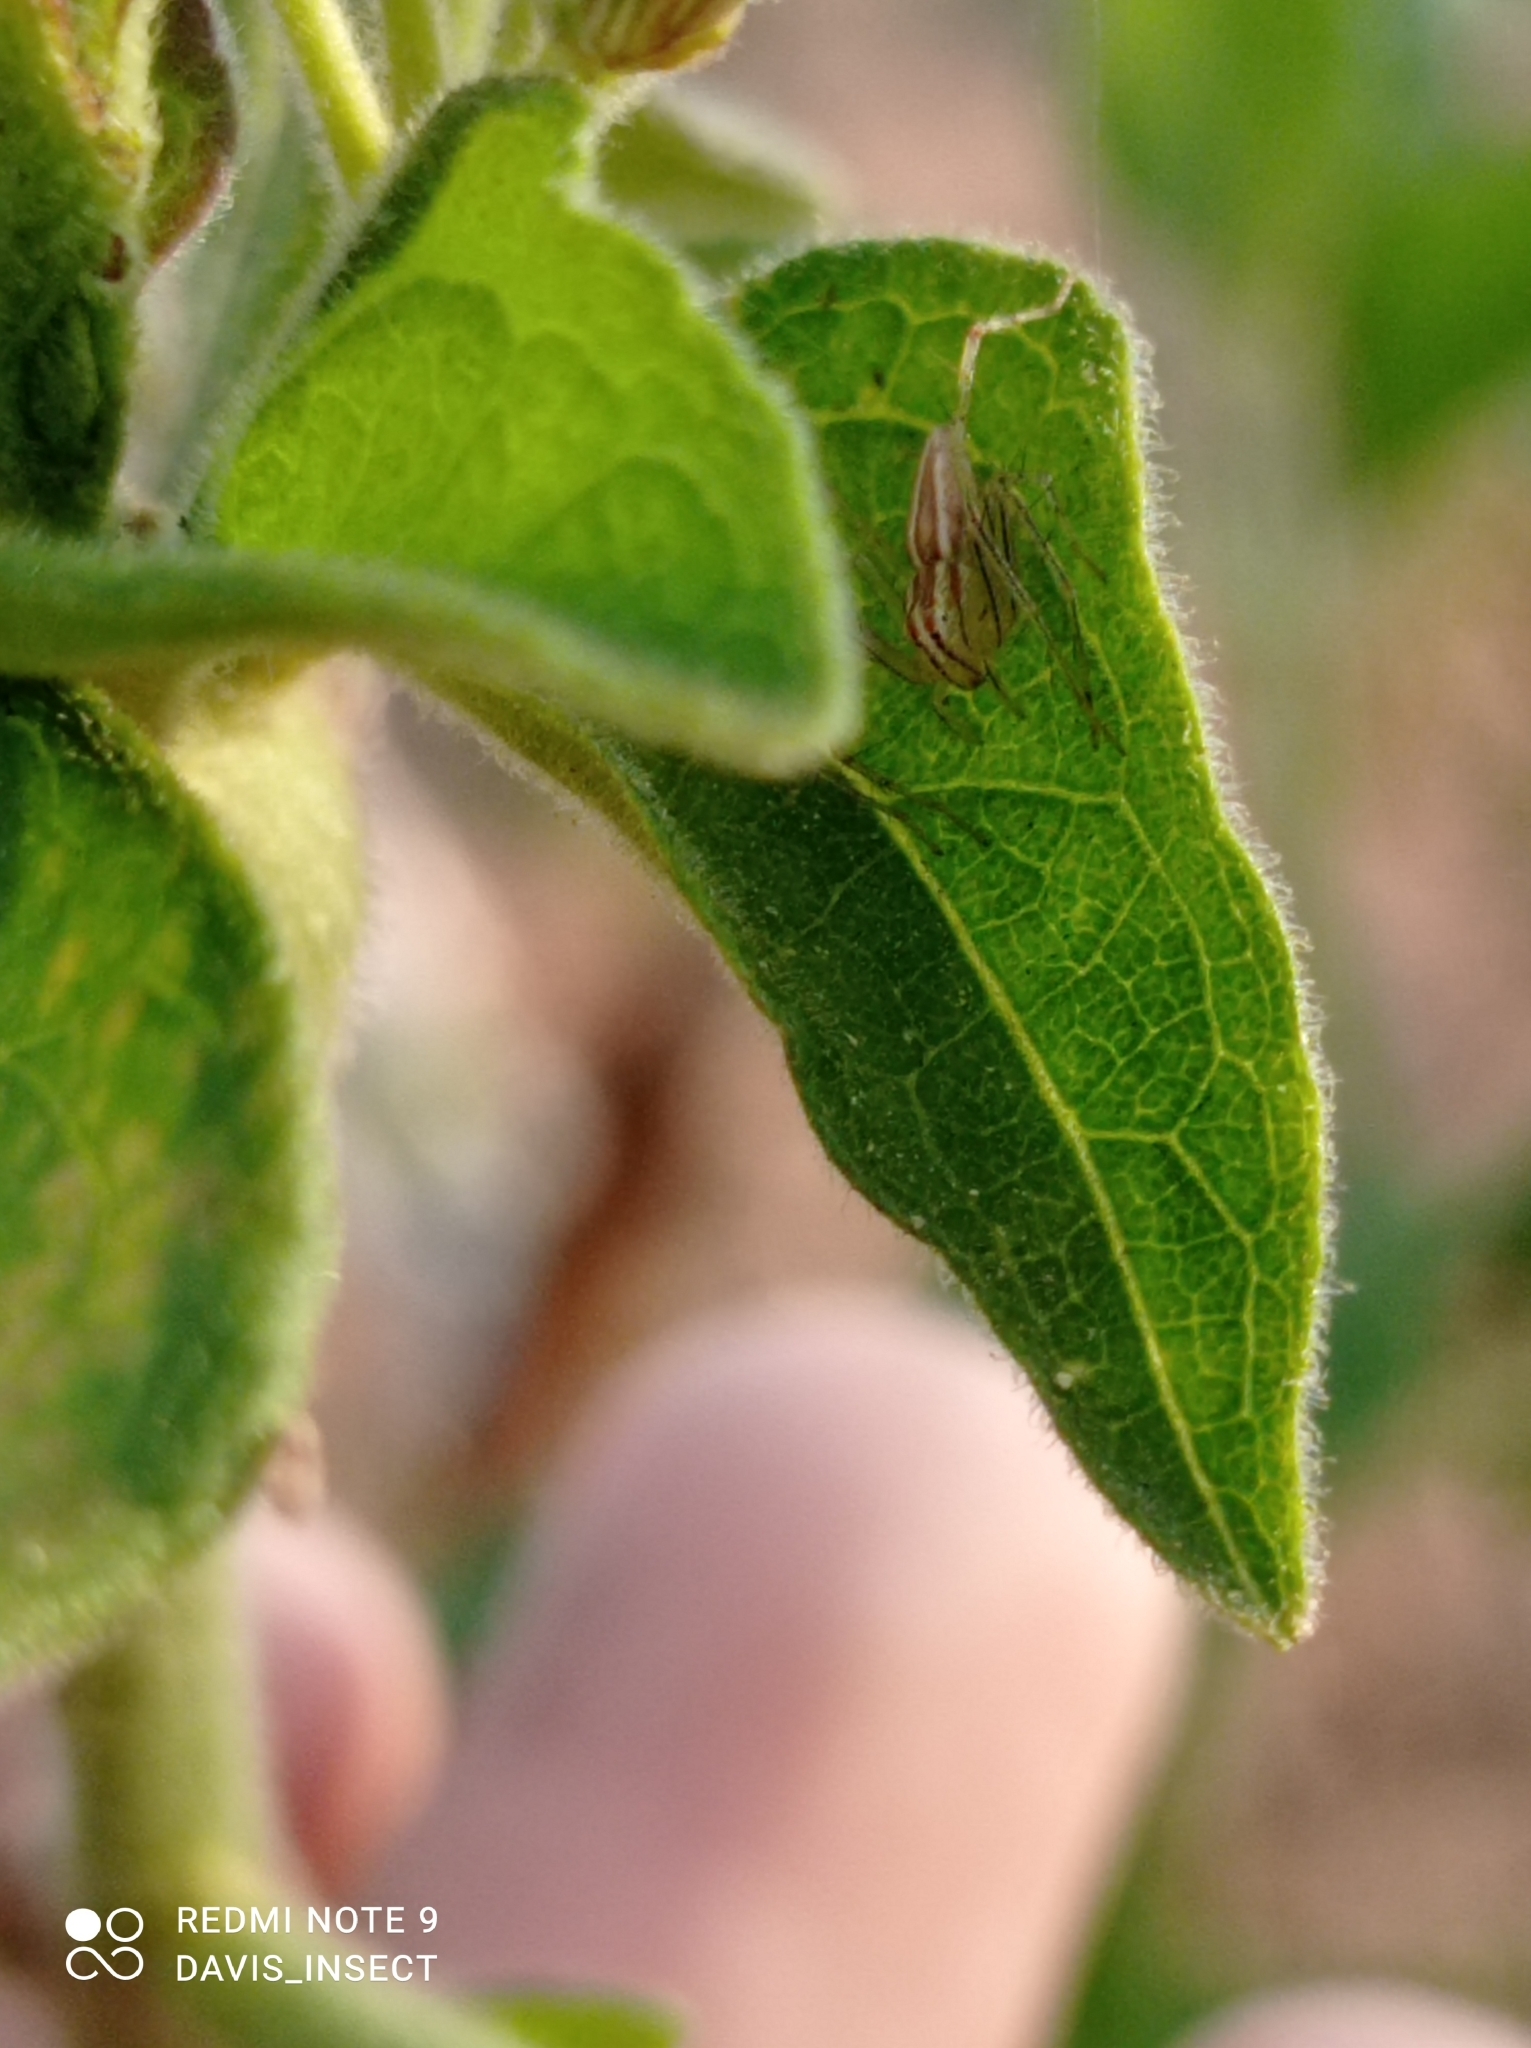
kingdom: Animalia
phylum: Arthropoda
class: Arachnida
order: Araneae
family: Oxyopidae
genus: Oxyopes
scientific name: Oxyopes macilentus
